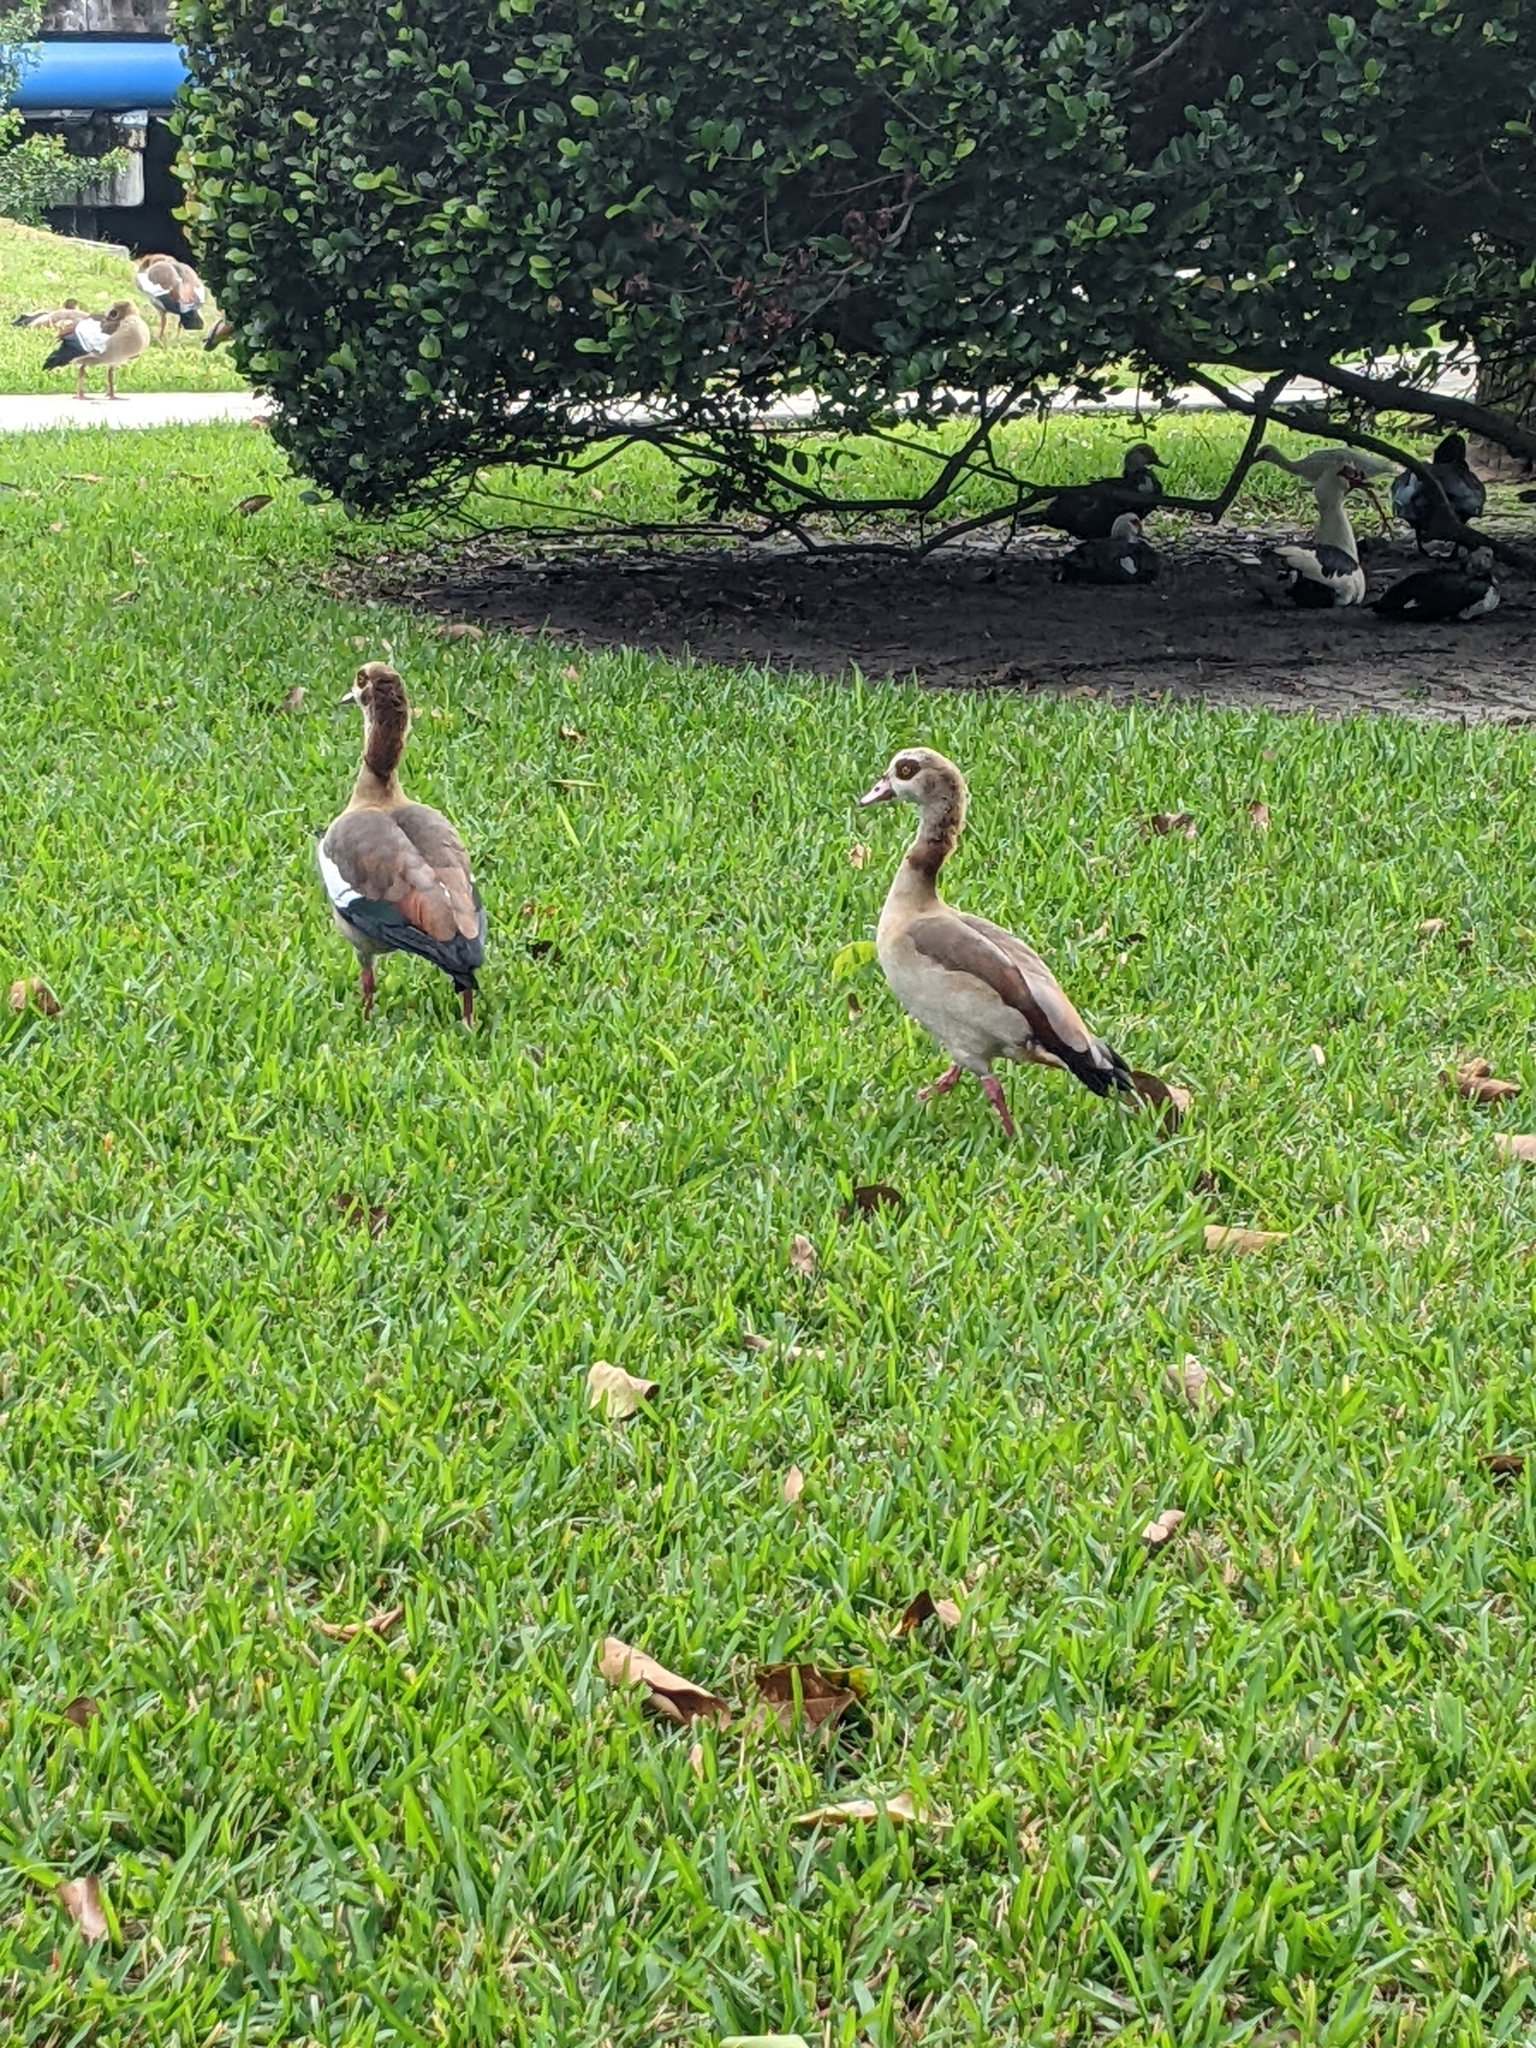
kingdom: Animalia
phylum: Chordata
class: Aves
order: Anseriformes
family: Anatidae
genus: Alopochen
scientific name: Alopochen aegyptiaca
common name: Egyptian goose
